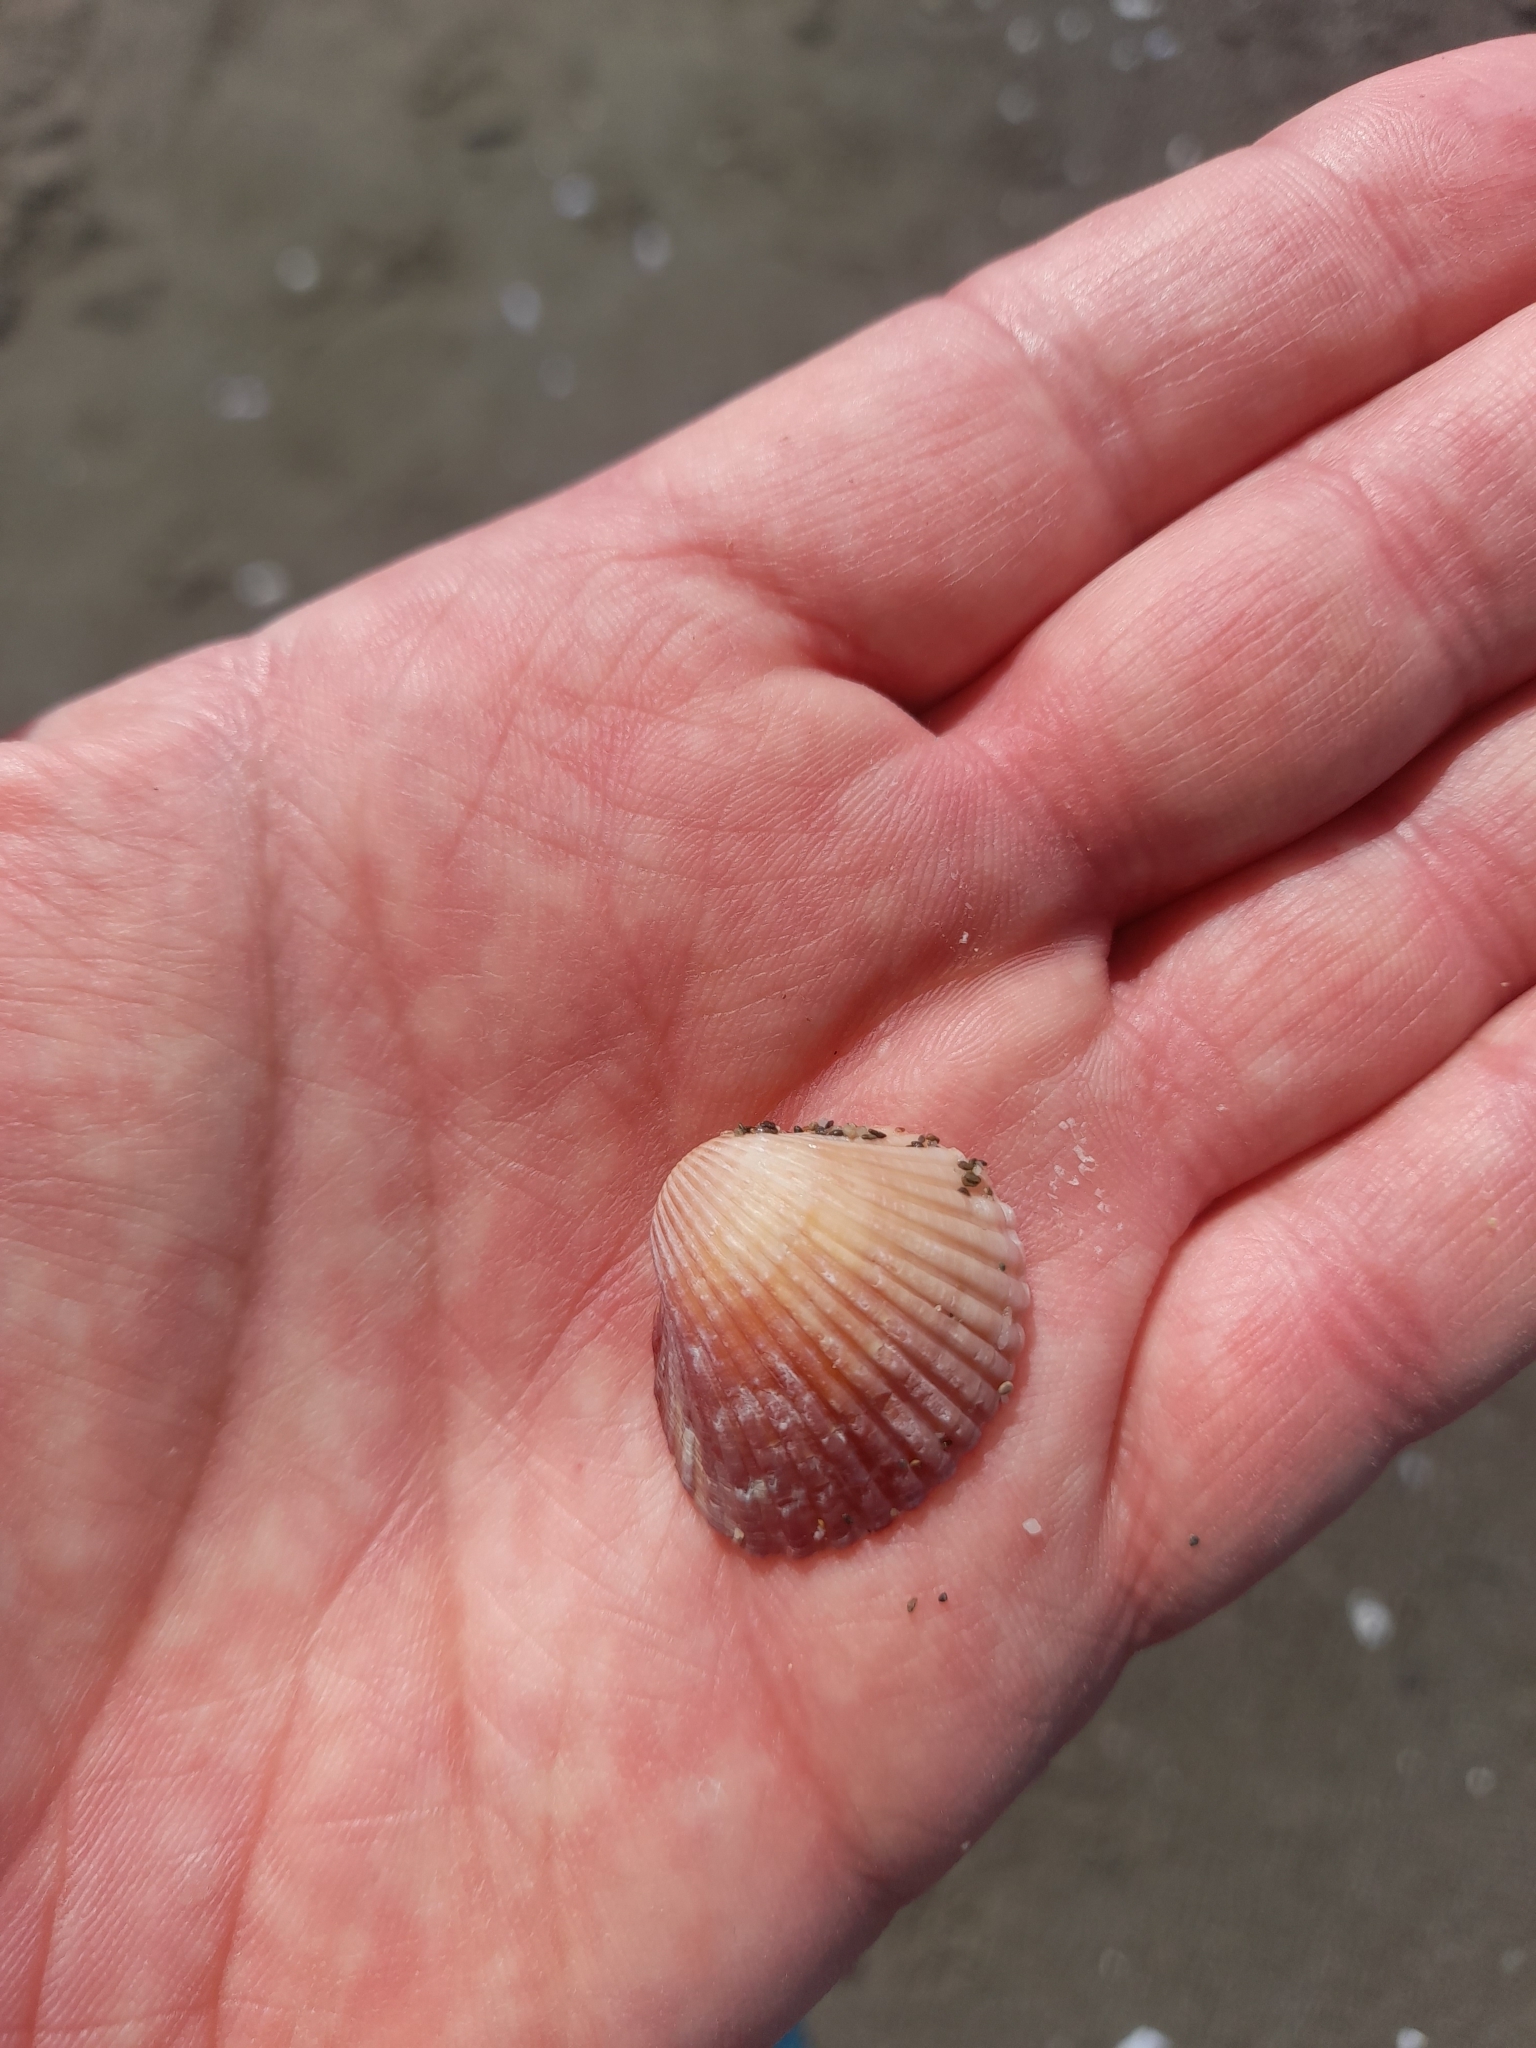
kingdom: Animalia
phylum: Mollusca
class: Bivalvia
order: Cardiida
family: Cardiidae
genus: Cerastoderma
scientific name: Cerastoderma glaucum
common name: Lagoon cockle
